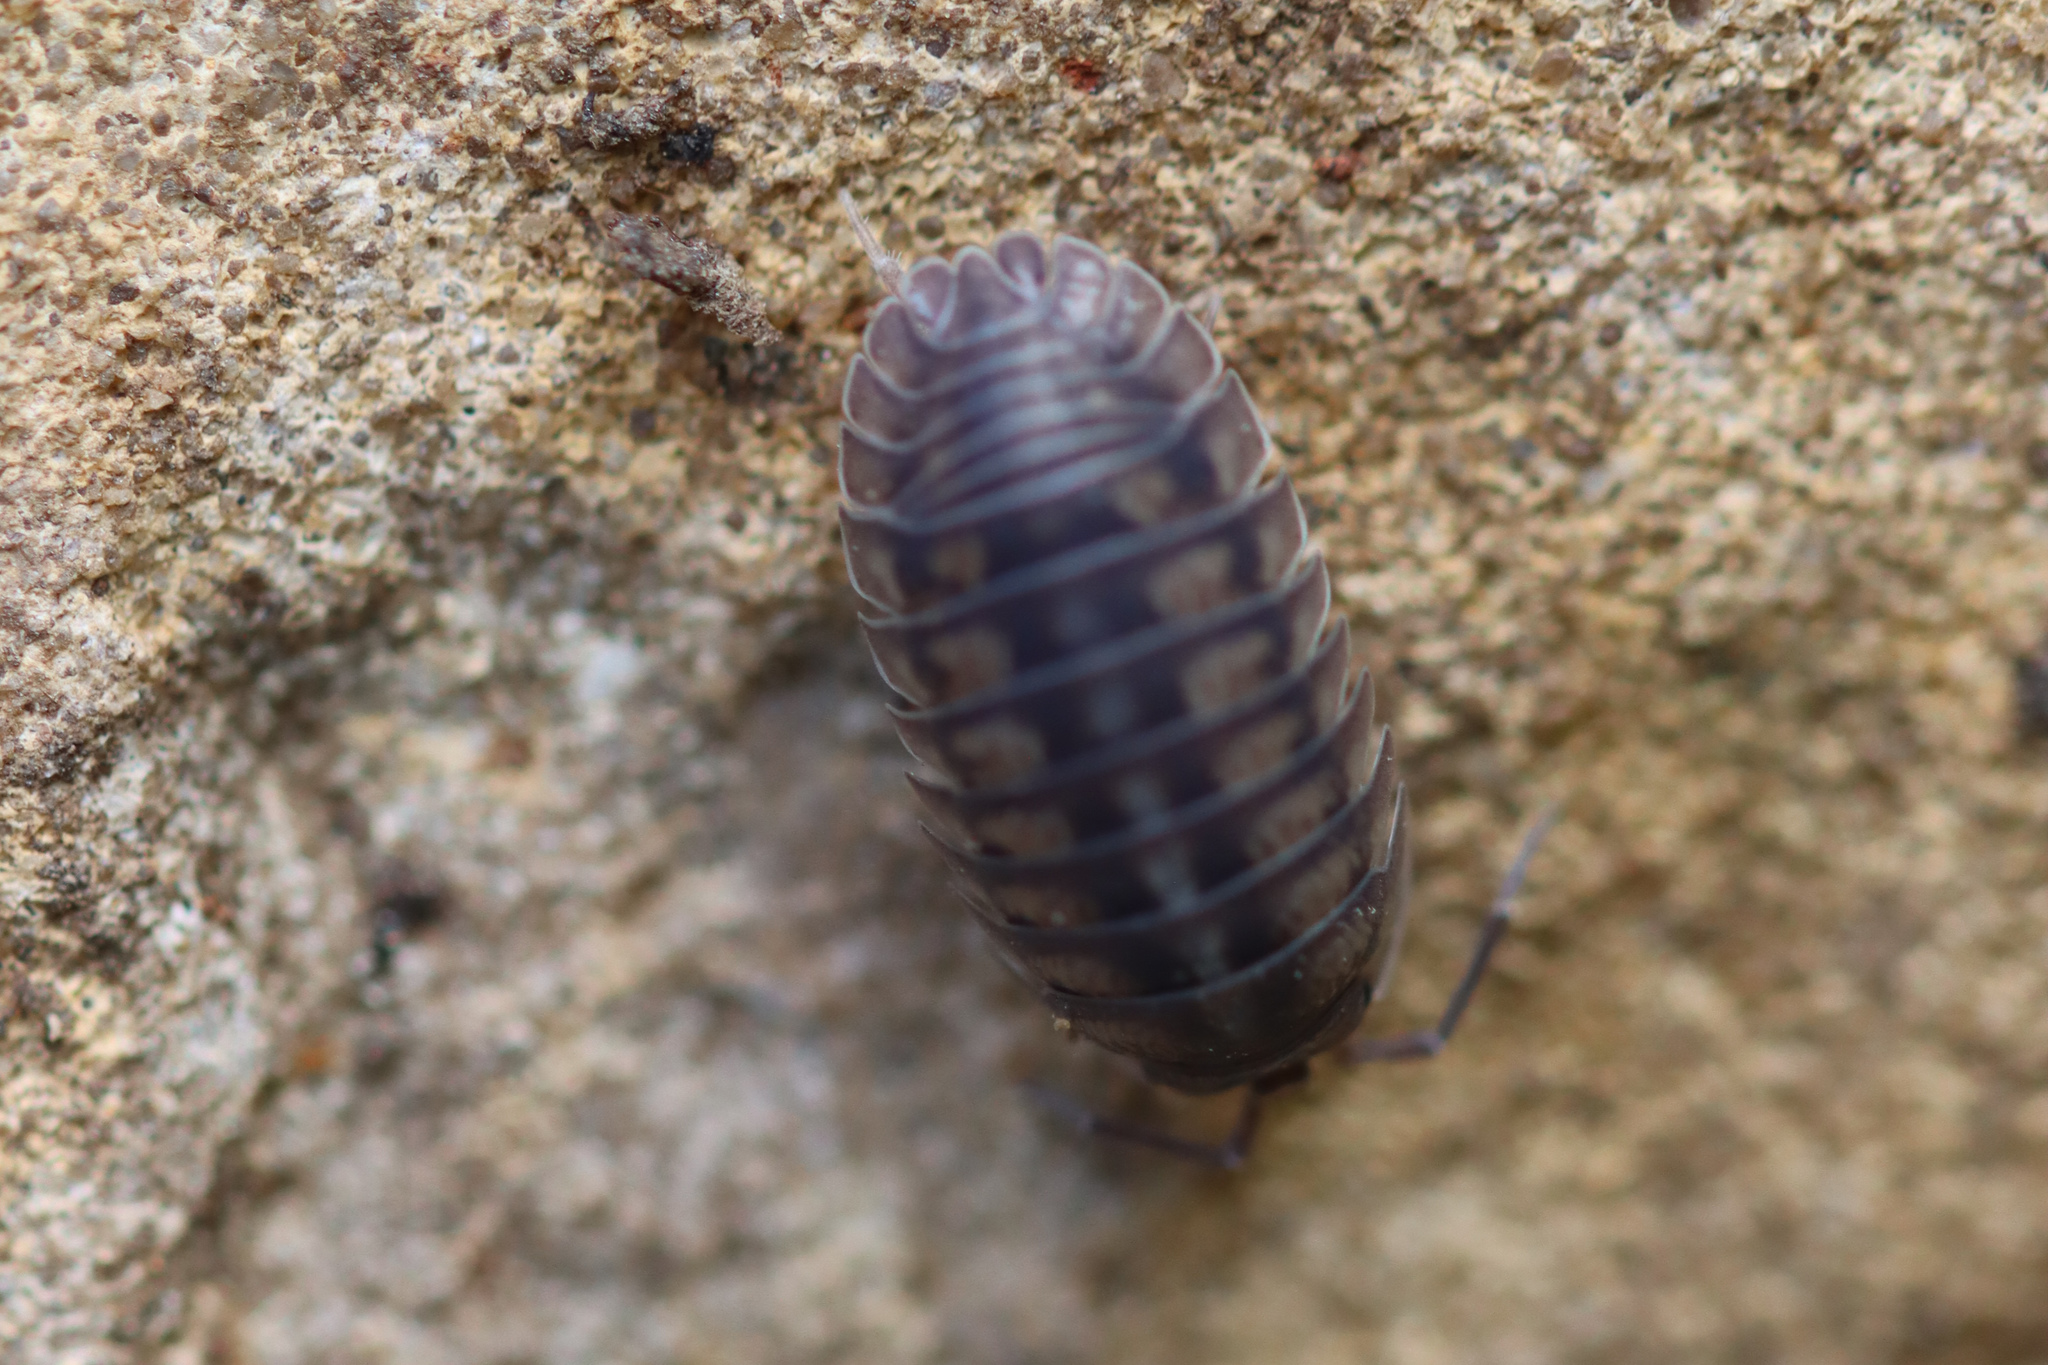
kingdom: Animalia
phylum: Arthropoda
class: Malacostraca
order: Isopoda
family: Armadillidiidae
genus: Armadillidium
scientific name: Armadillidium nasatum
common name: Isopod
